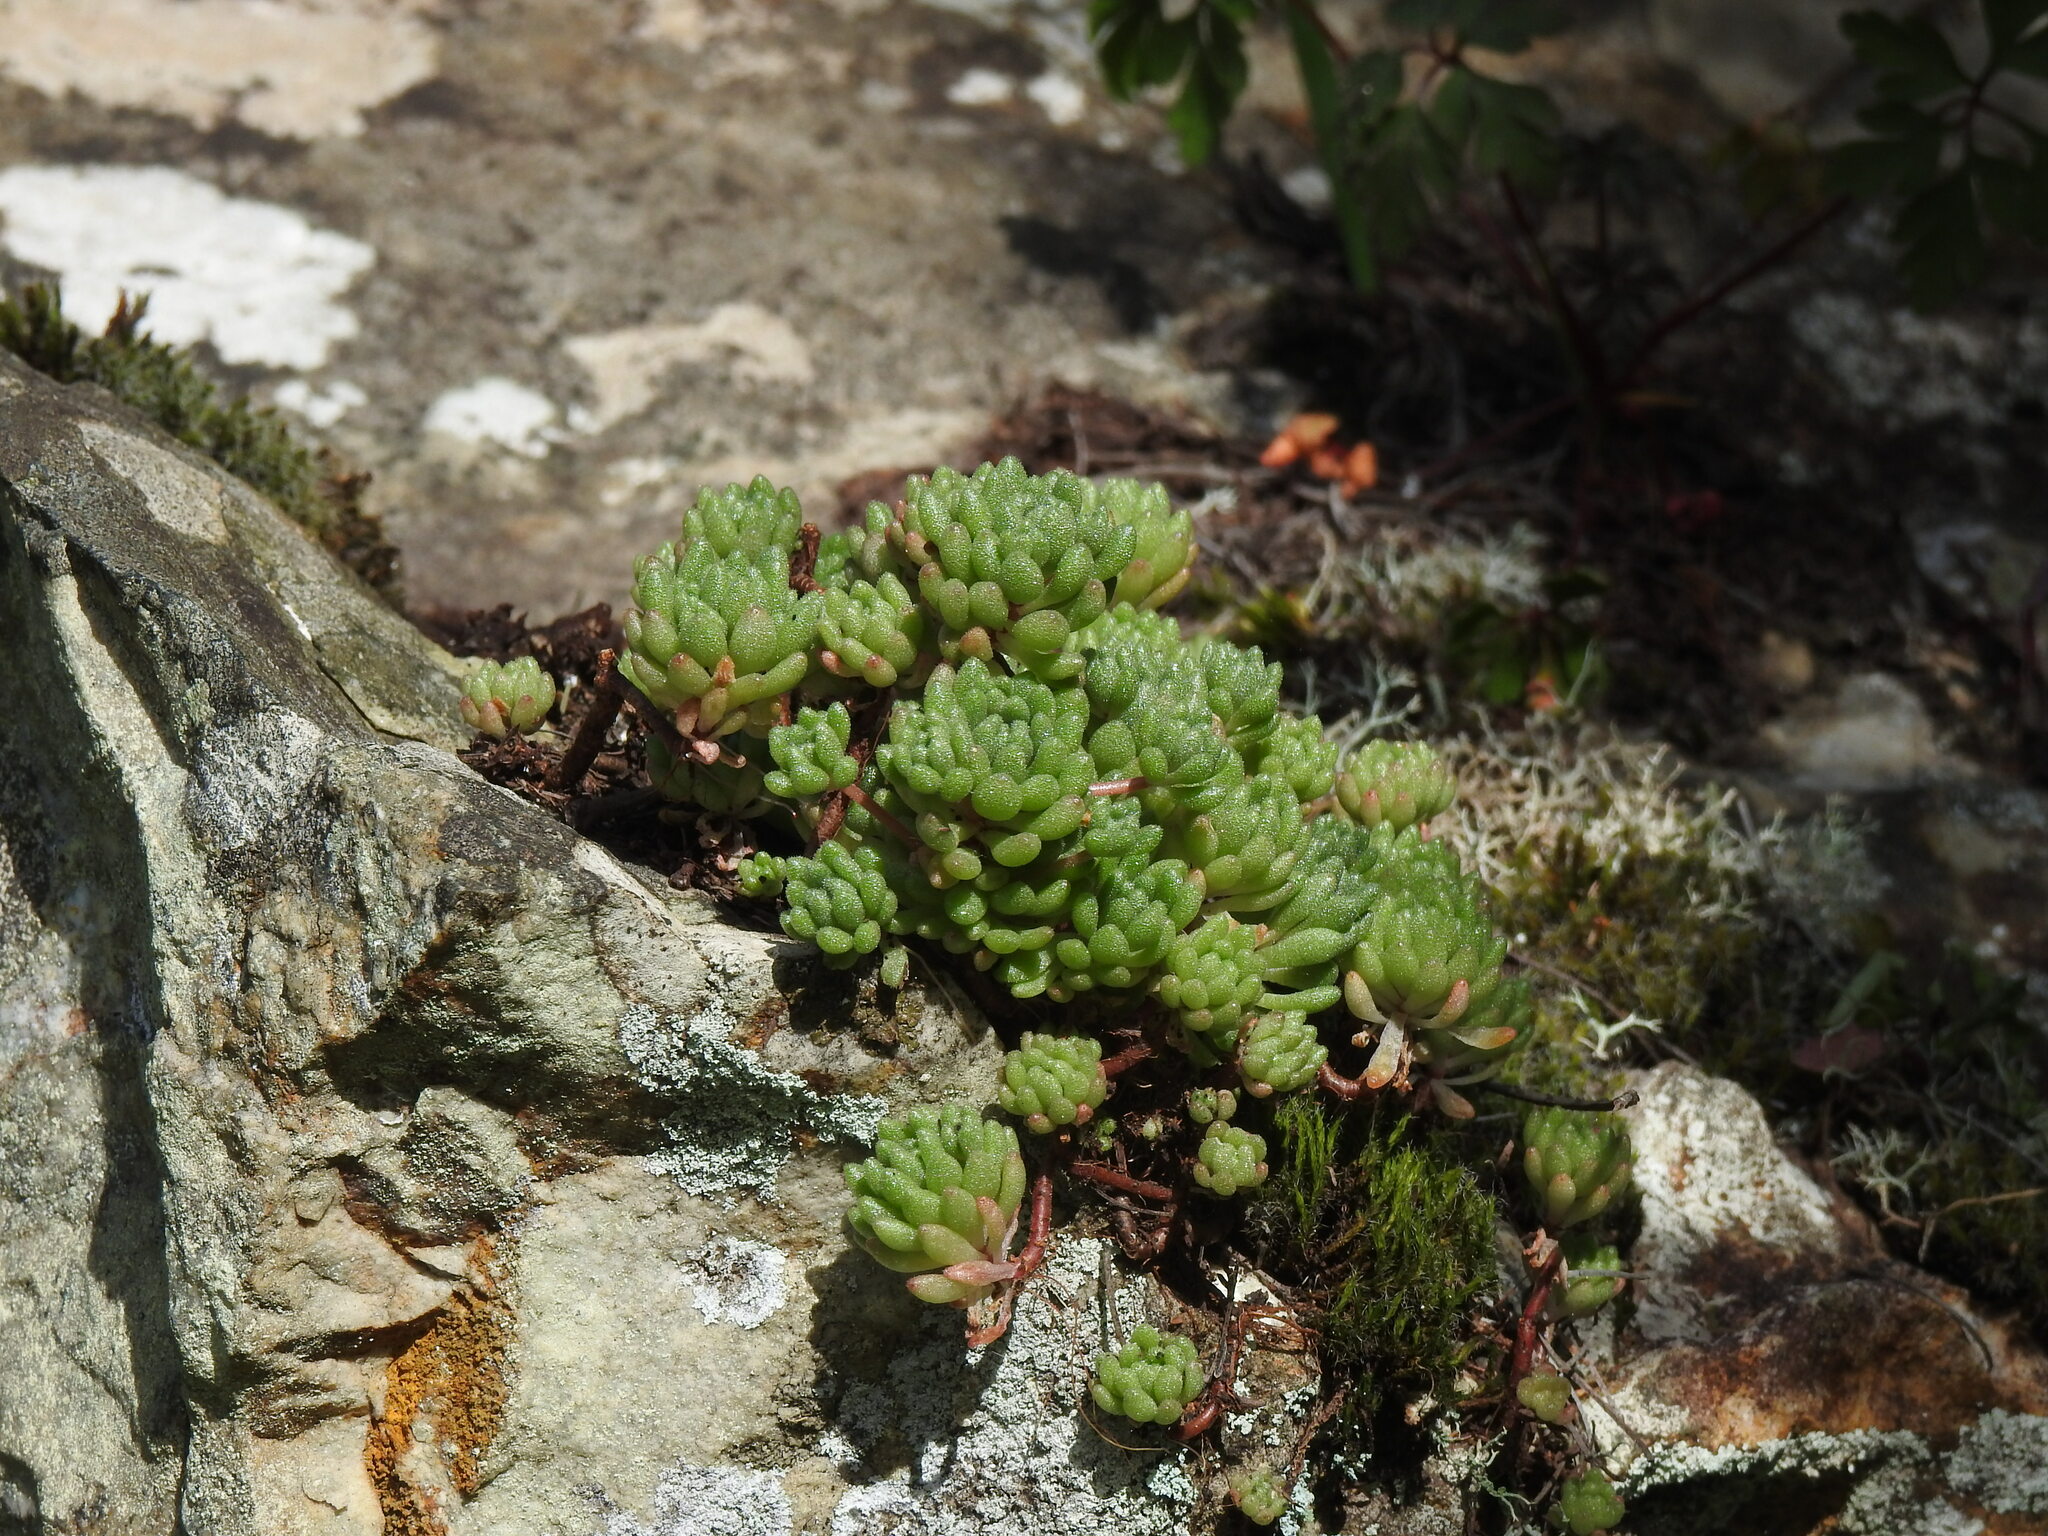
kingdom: Plantae
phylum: Tracheophyta
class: Magnoliopsida
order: Saxifragales
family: Crassulaceae
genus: Sedum
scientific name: Sedum hirsutum
